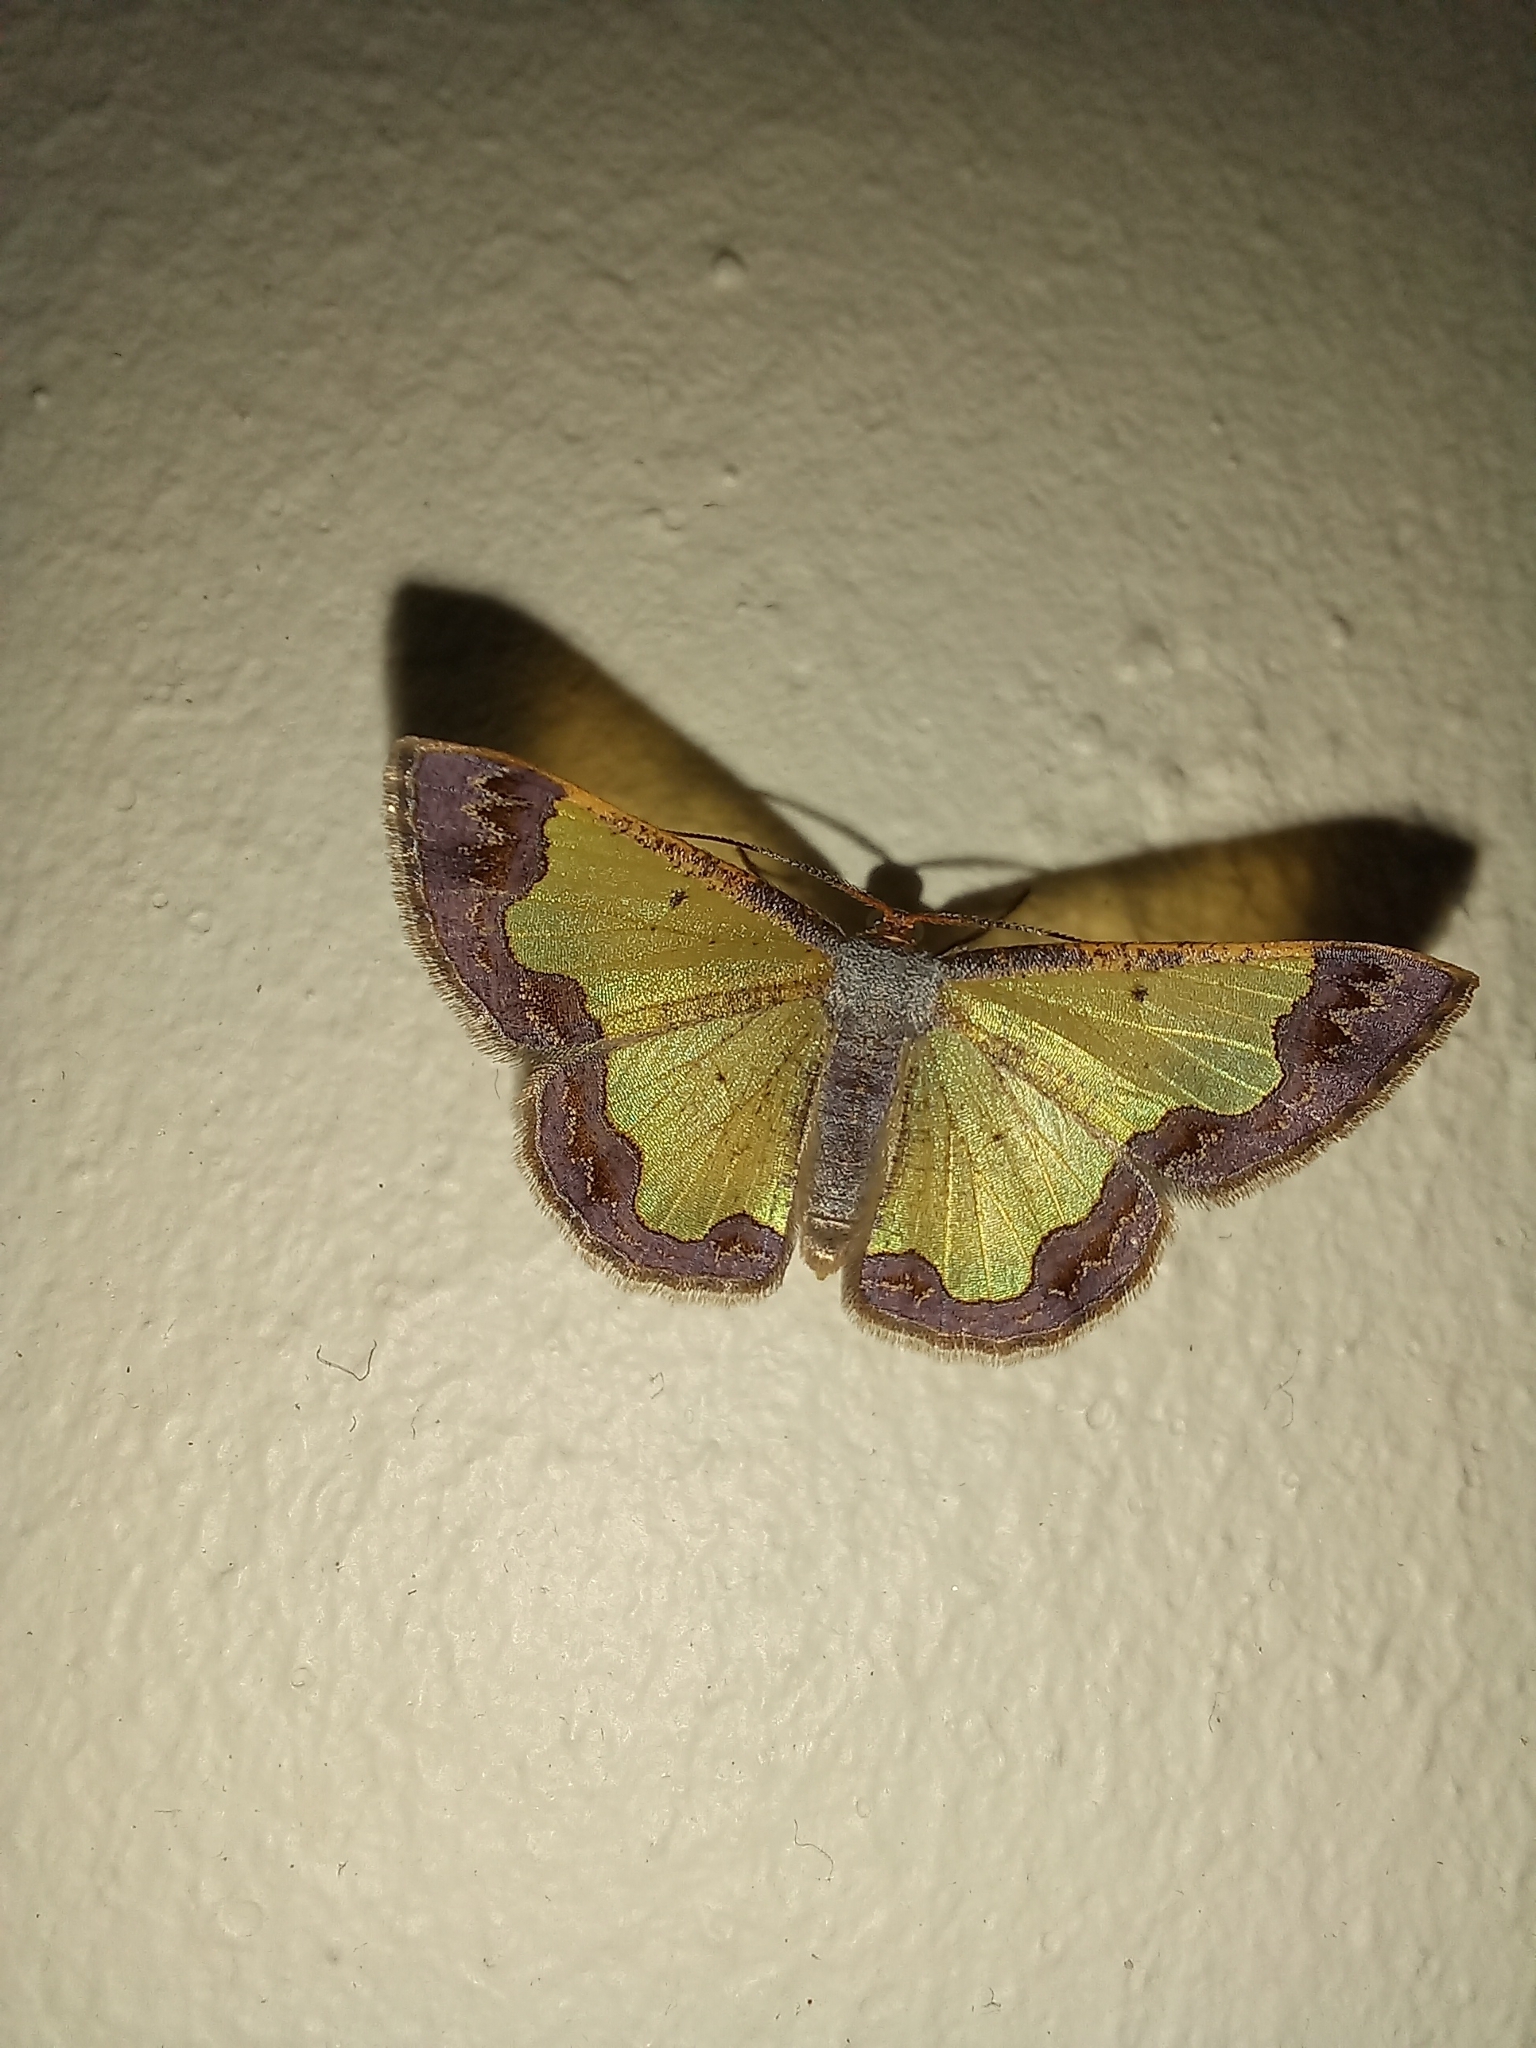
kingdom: Animalia
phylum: Arthropoda
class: Insecta
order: Lepidoptera
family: Geometridae
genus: Zamarada
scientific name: Zamarada plana
